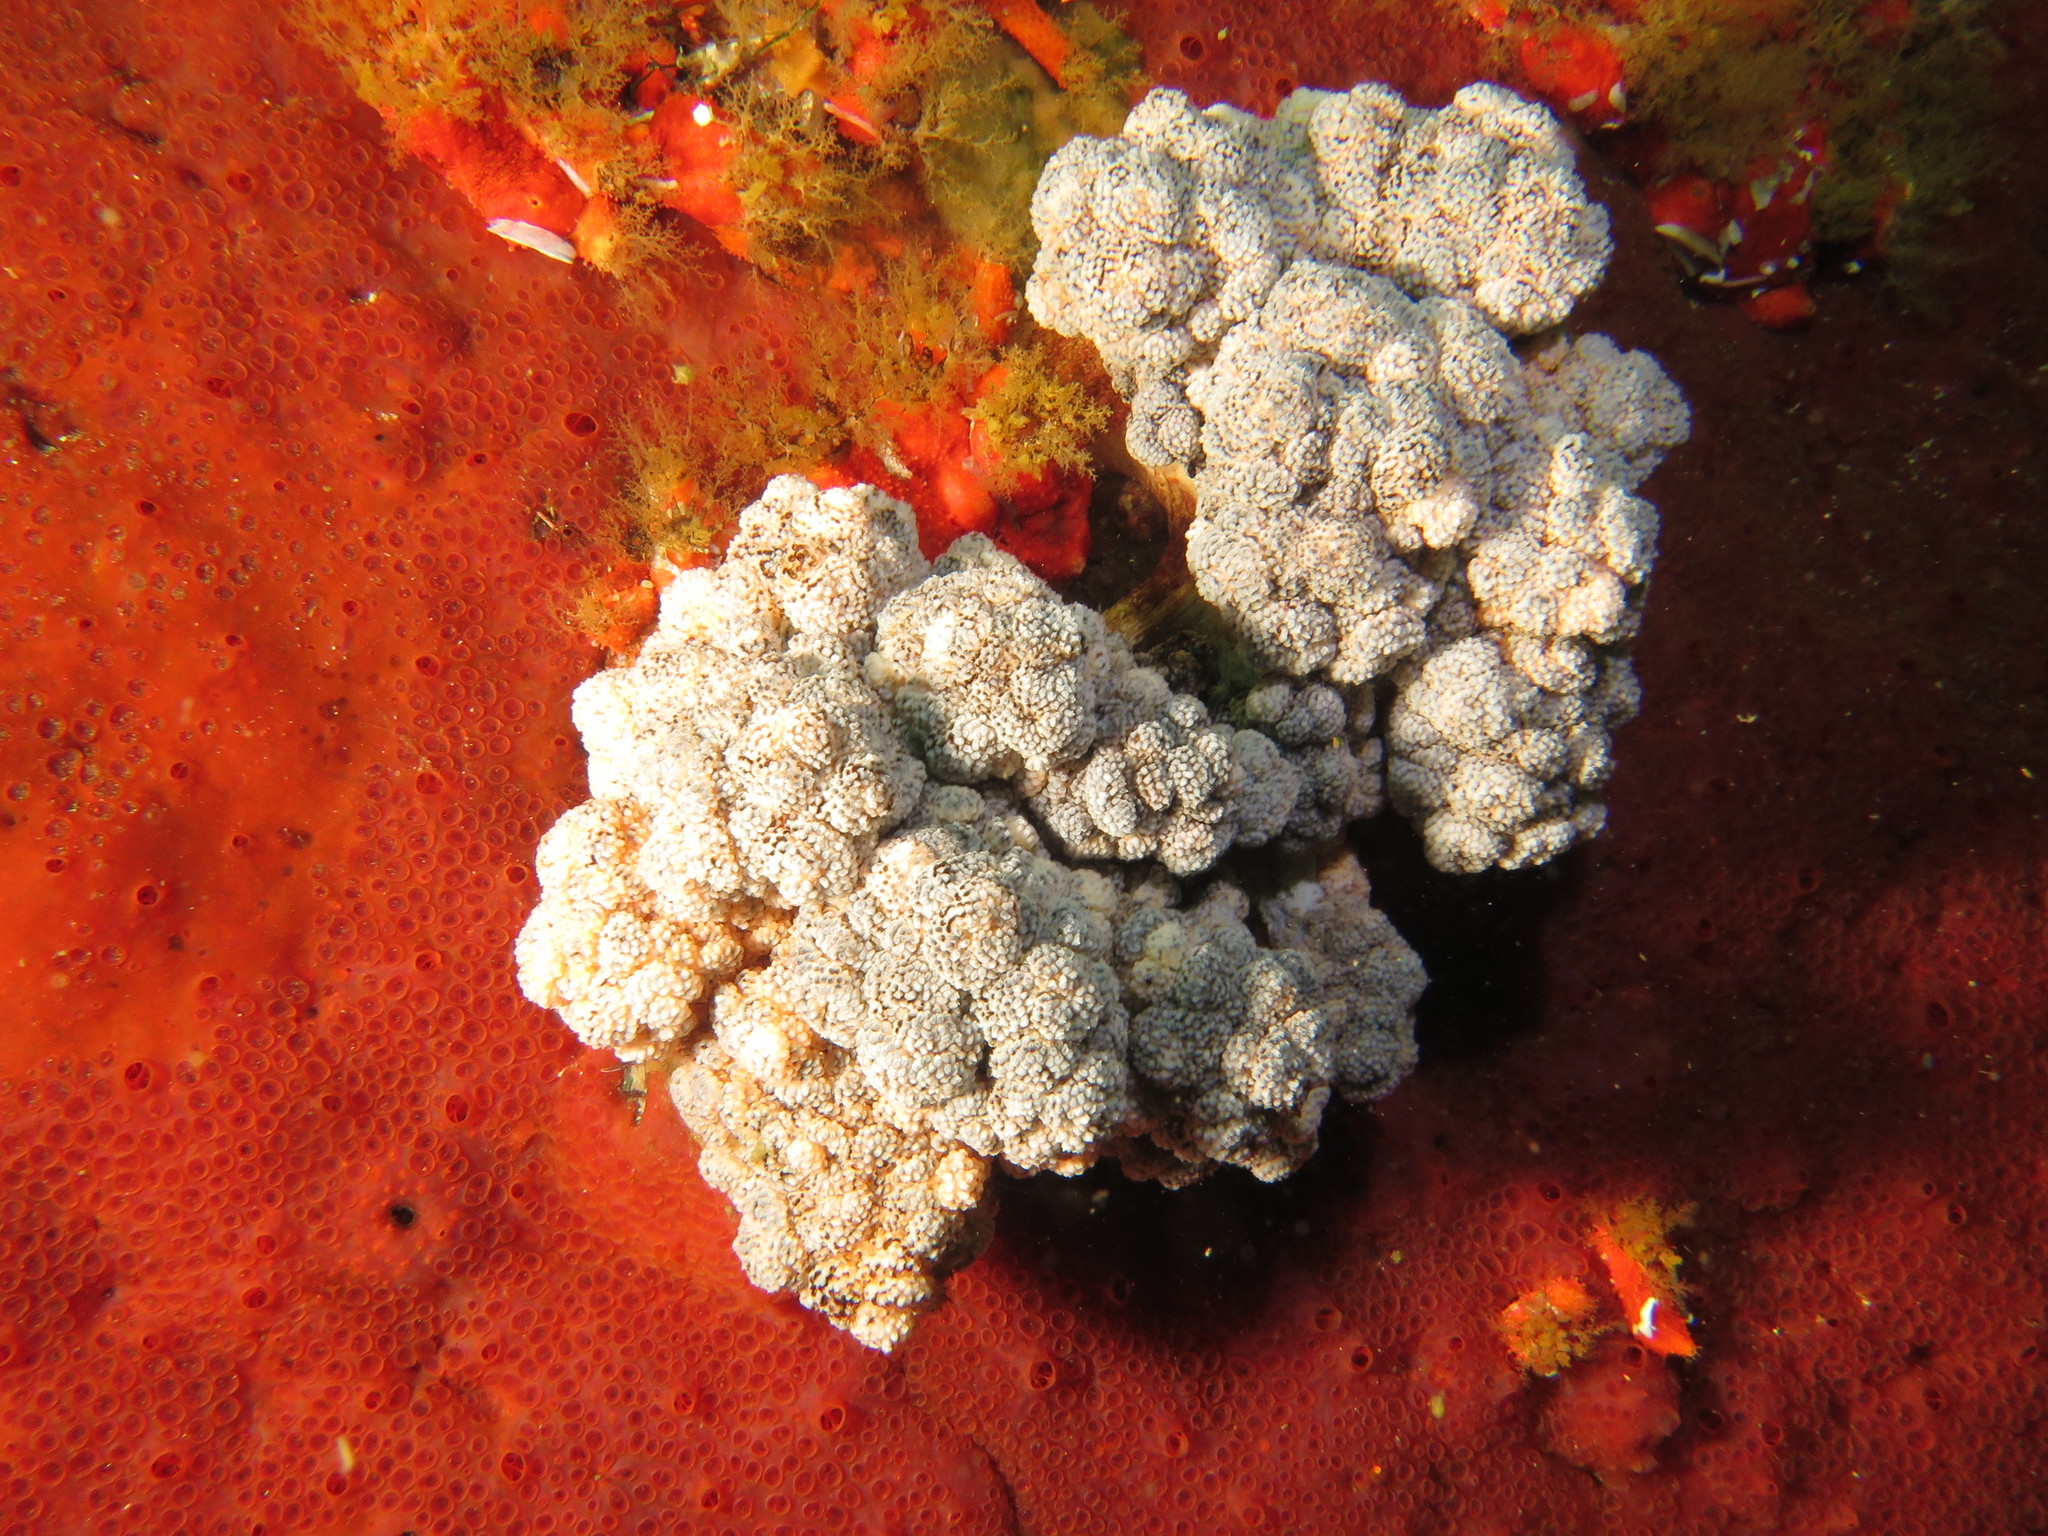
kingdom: Animalia
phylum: Cnidaria
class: Anthozoa
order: Malacalcyonacea
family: Capnellidae
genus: Eunephthya
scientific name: Eunephthya thyrsoidea
